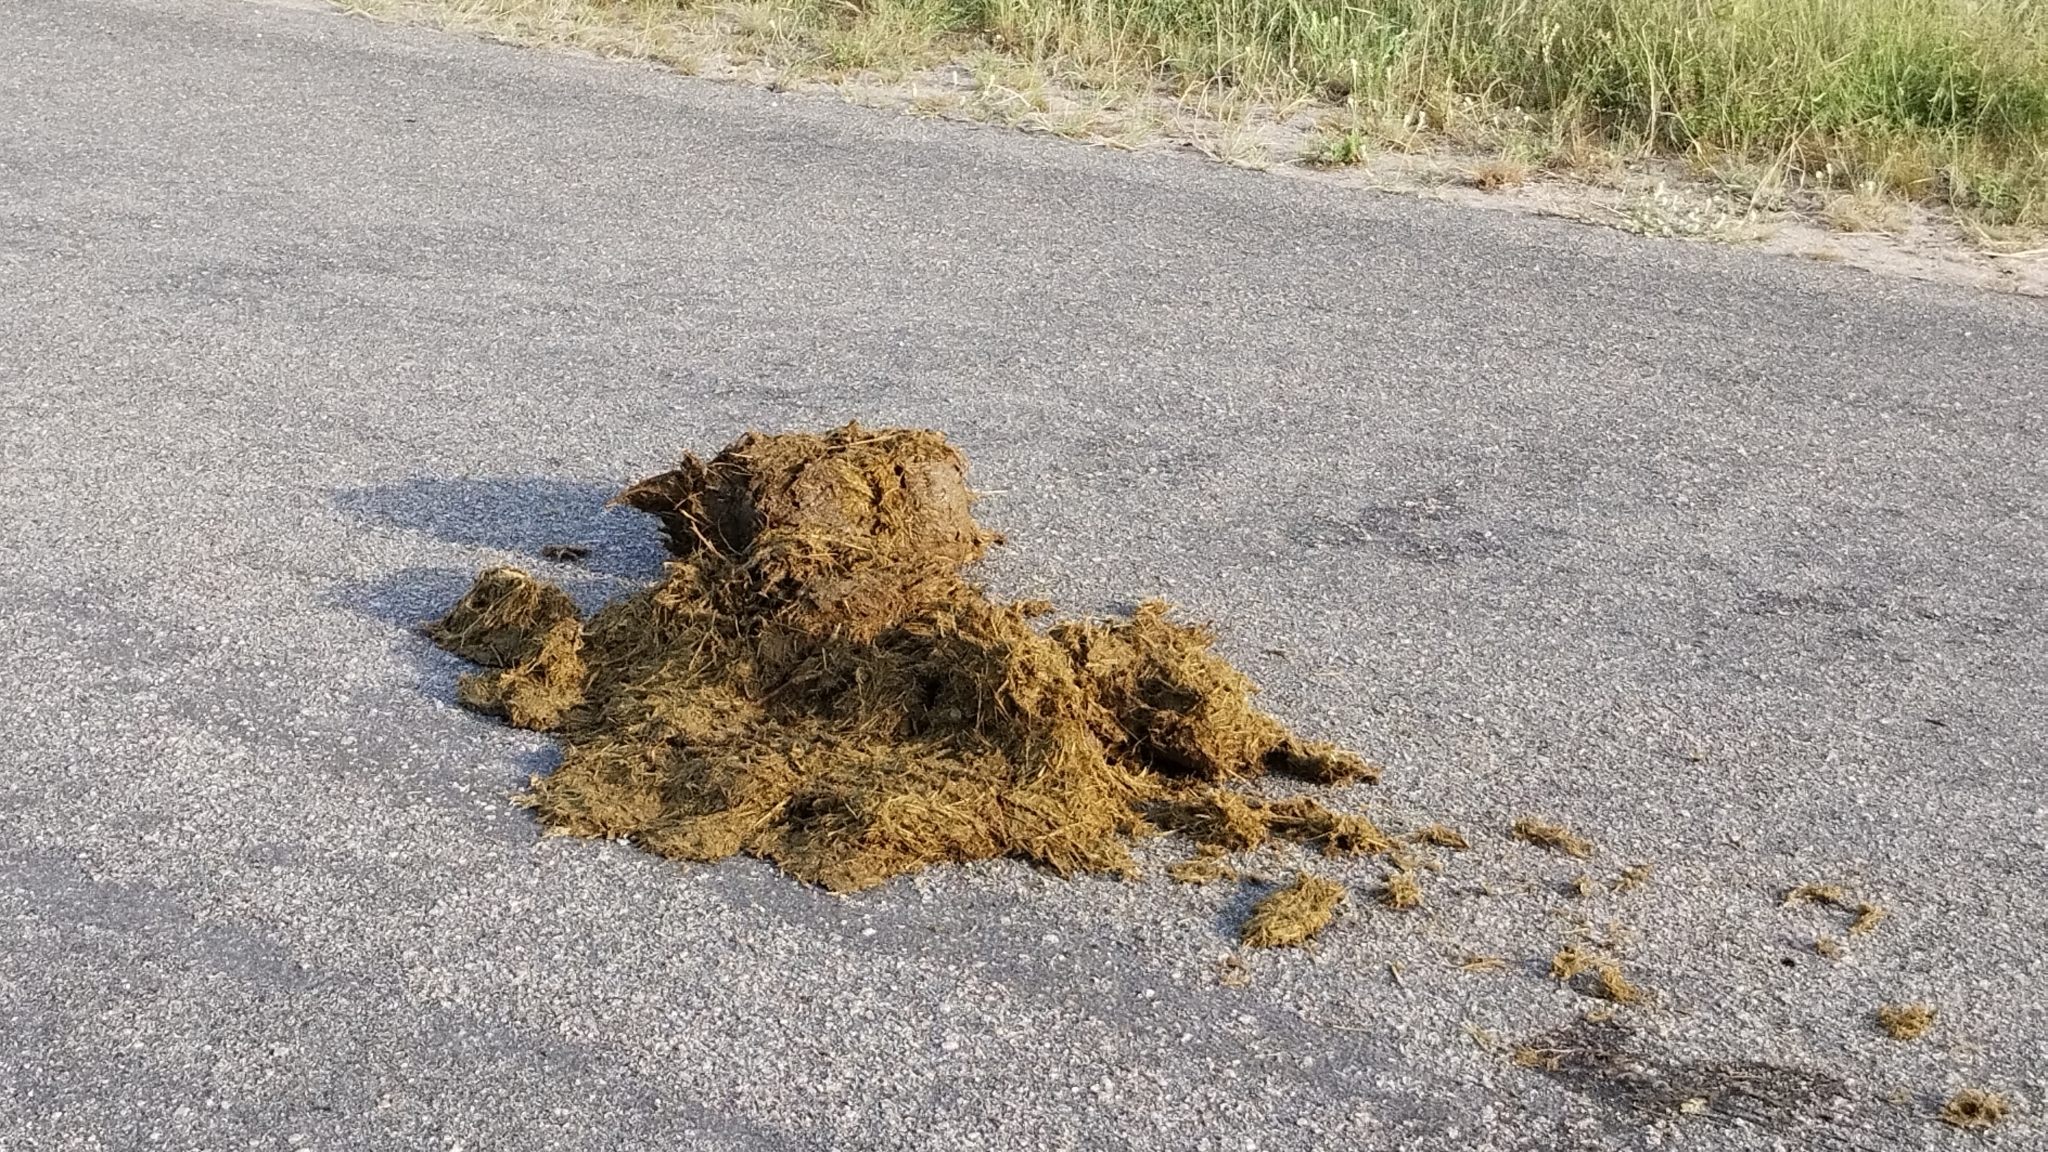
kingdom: Animalia
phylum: Chordata
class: Mammalia
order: Proboscidea
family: Elephantidae
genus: Loxodonta
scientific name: Loxodonta africana
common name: African elephant
